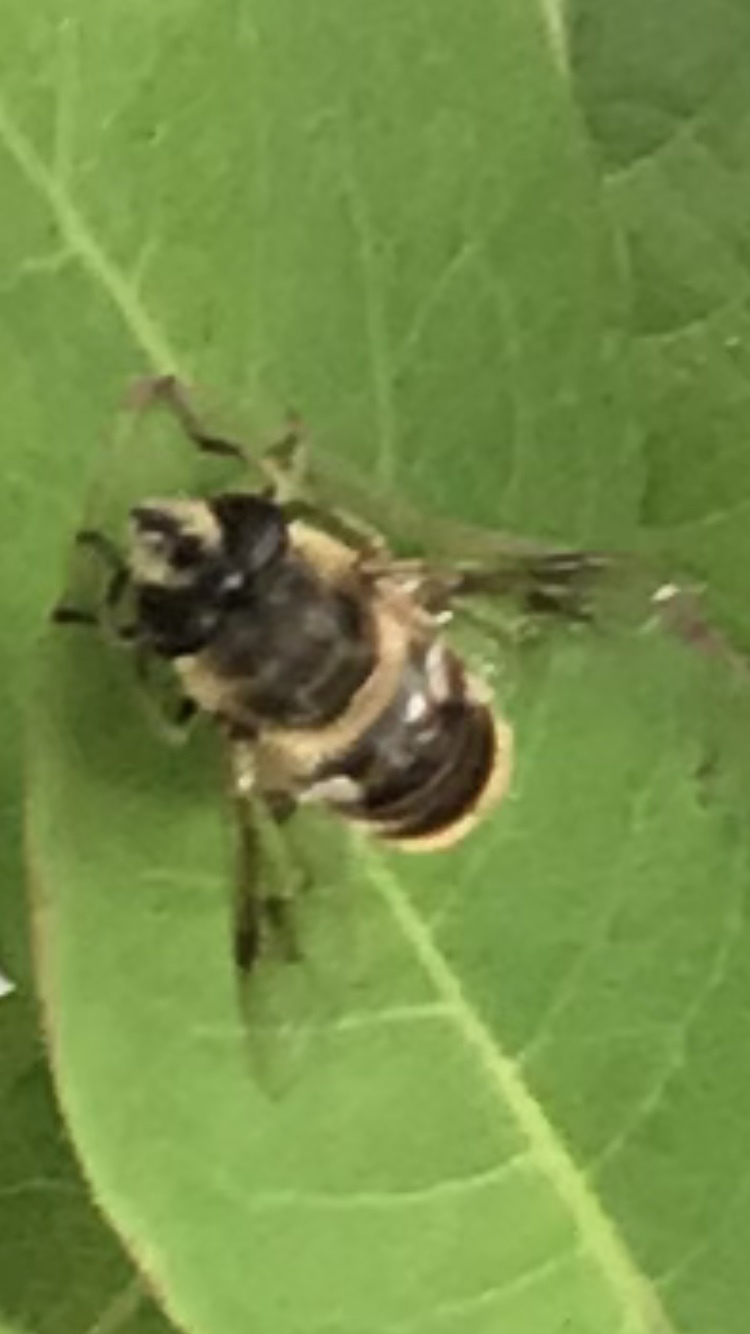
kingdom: Animalia
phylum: Arthropoda
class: Insecta
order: Diptera
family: Syrphidae
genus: Eristalis
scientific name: Eristalis tenax
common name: Drone fly
